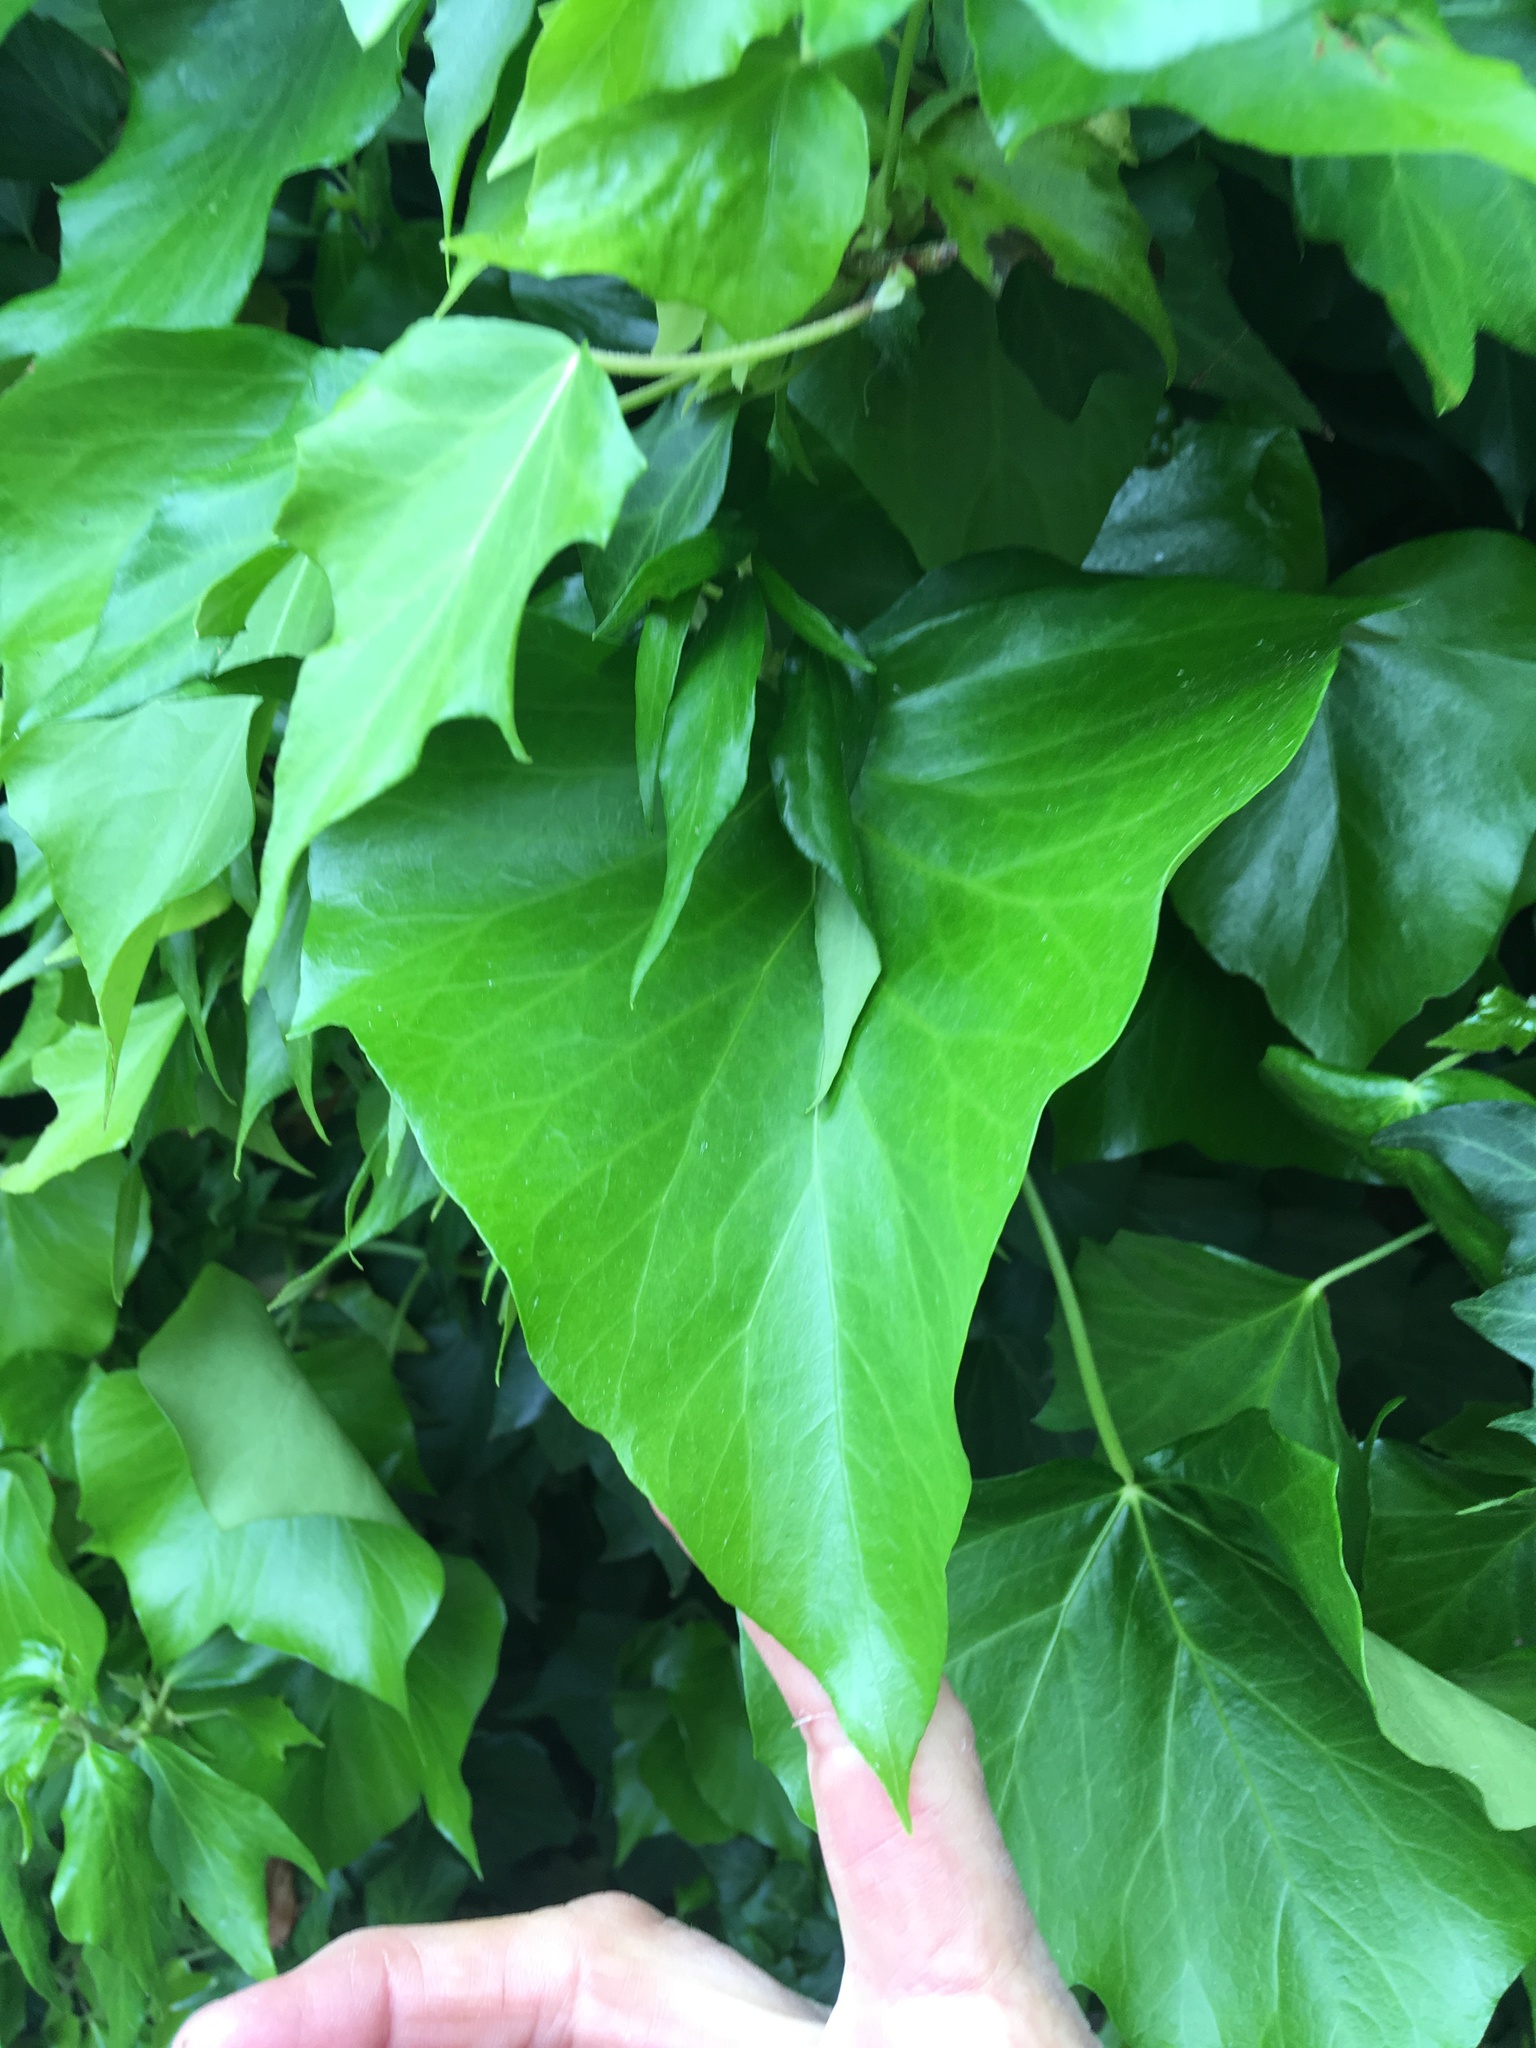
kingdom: Plantae
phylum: Tracheophyta
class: Magnoliopsida
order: Apiales
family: Araliaceae
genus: Hedera
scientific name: Hedera helix
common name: Ivy
